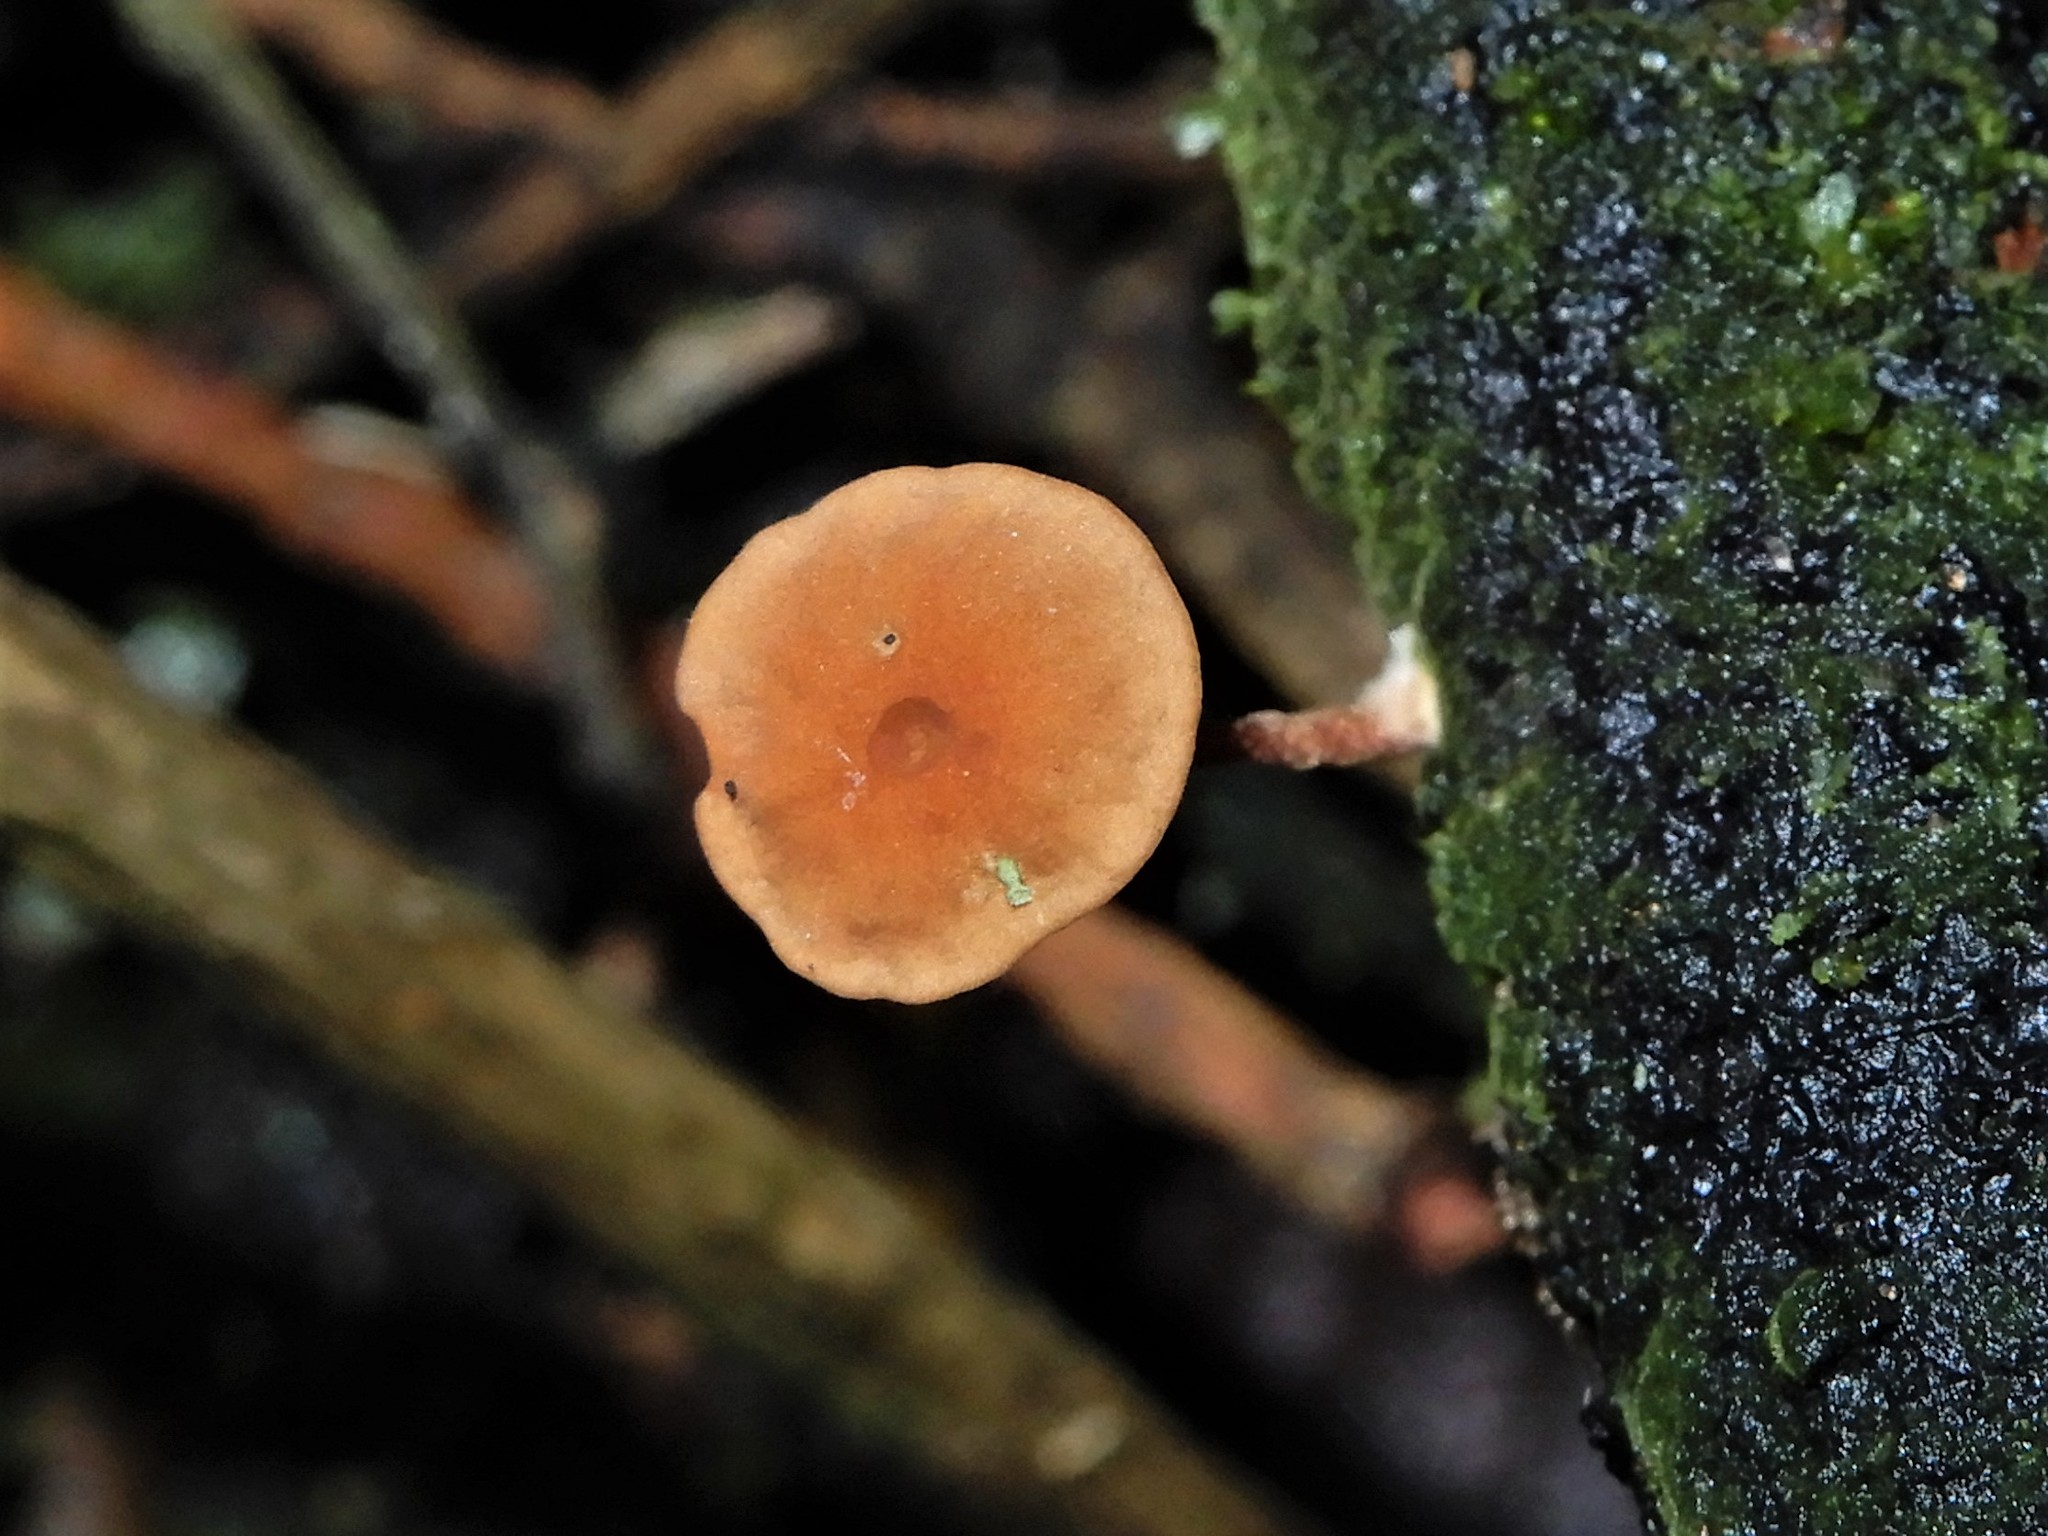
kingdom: Fungi
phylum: Basidiomycota
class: Agaricomycetes
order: Agaricales
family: Marasmiaceae
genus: Marasmius
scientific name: Marasmius croceus
